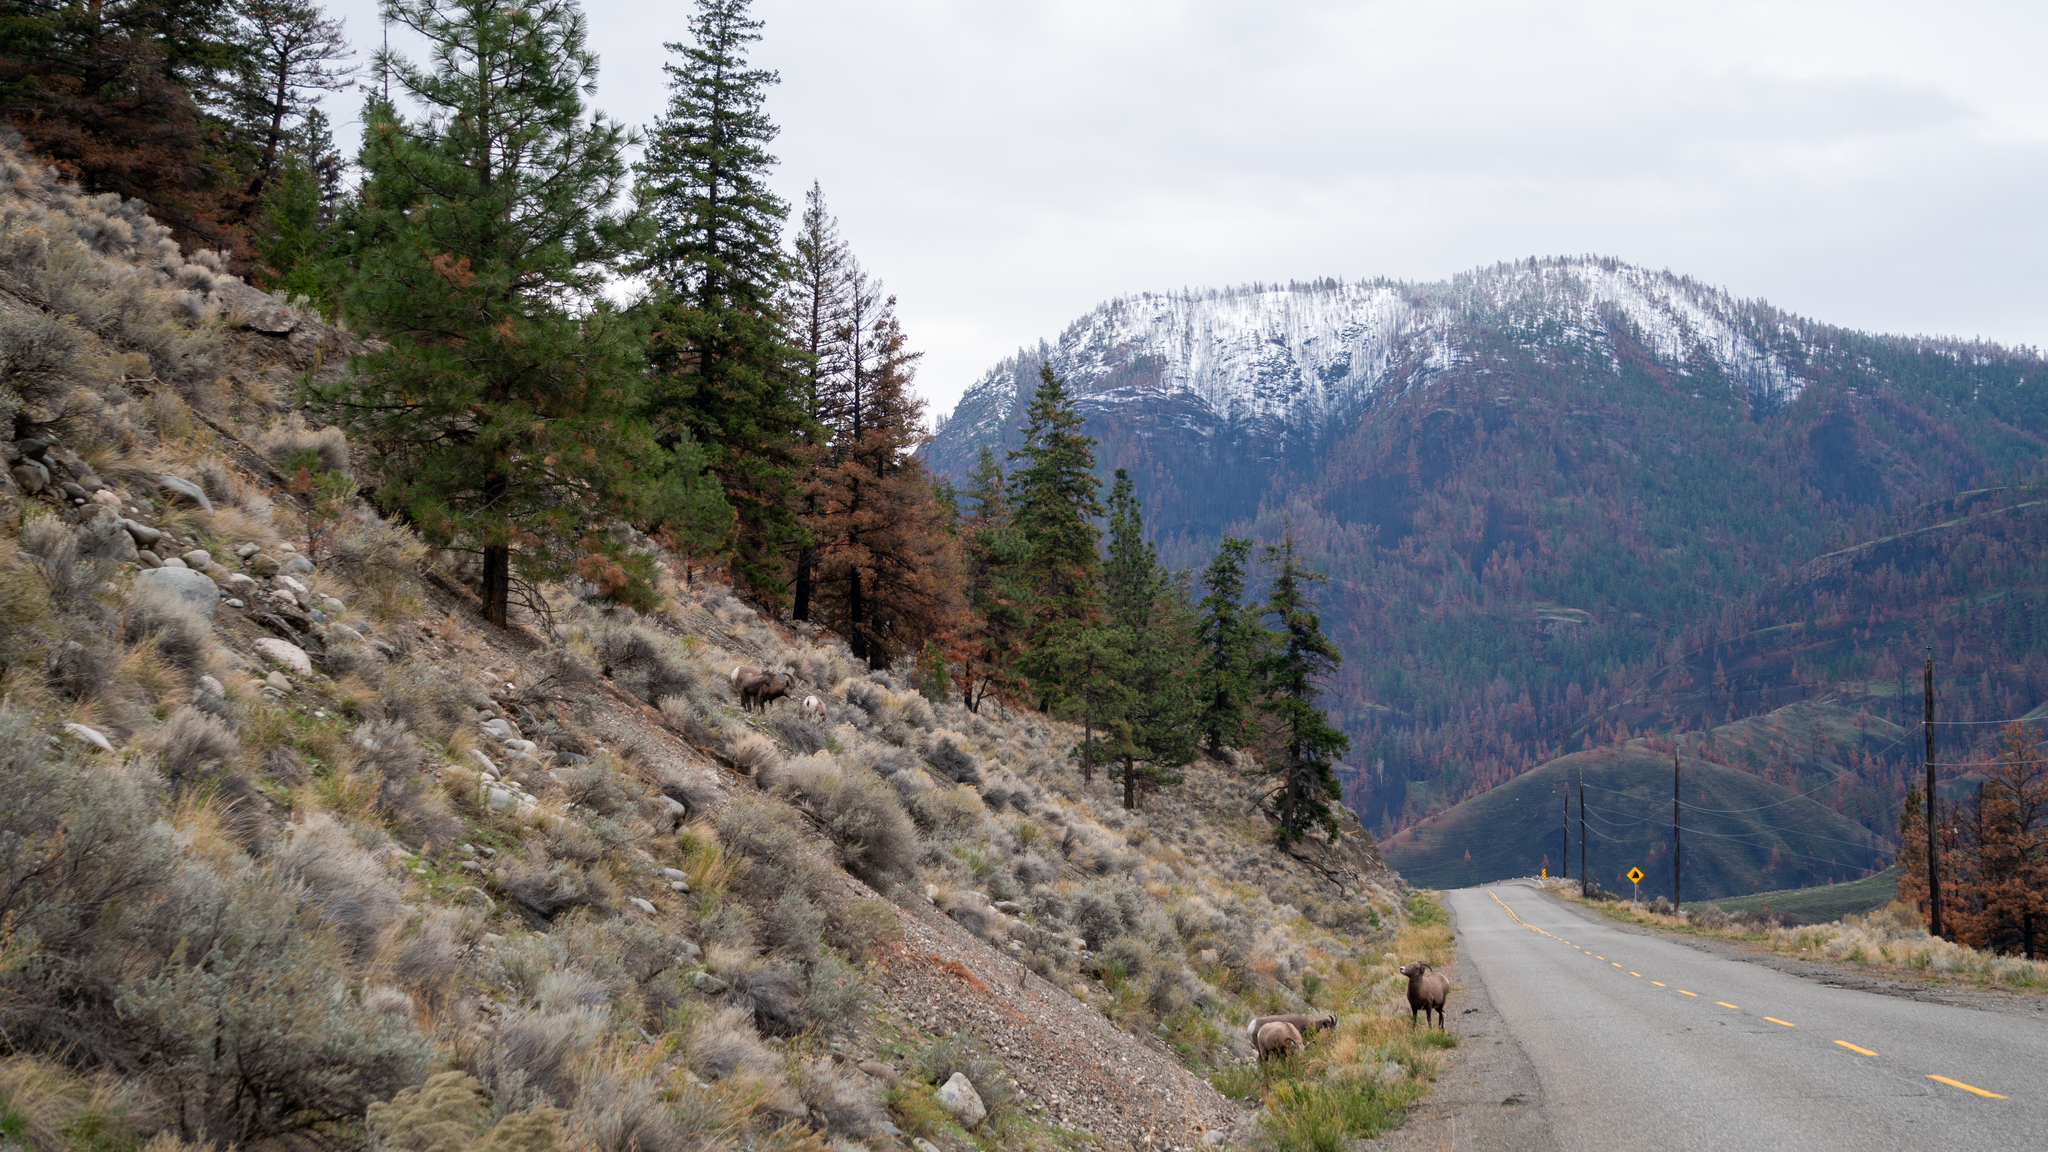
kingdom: Animalia
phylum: Chordata
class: Mammalia
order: Artiodactyla
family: Bovidae
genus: Ovis
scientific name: Ovis canadensis
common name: Bighorn sheep
